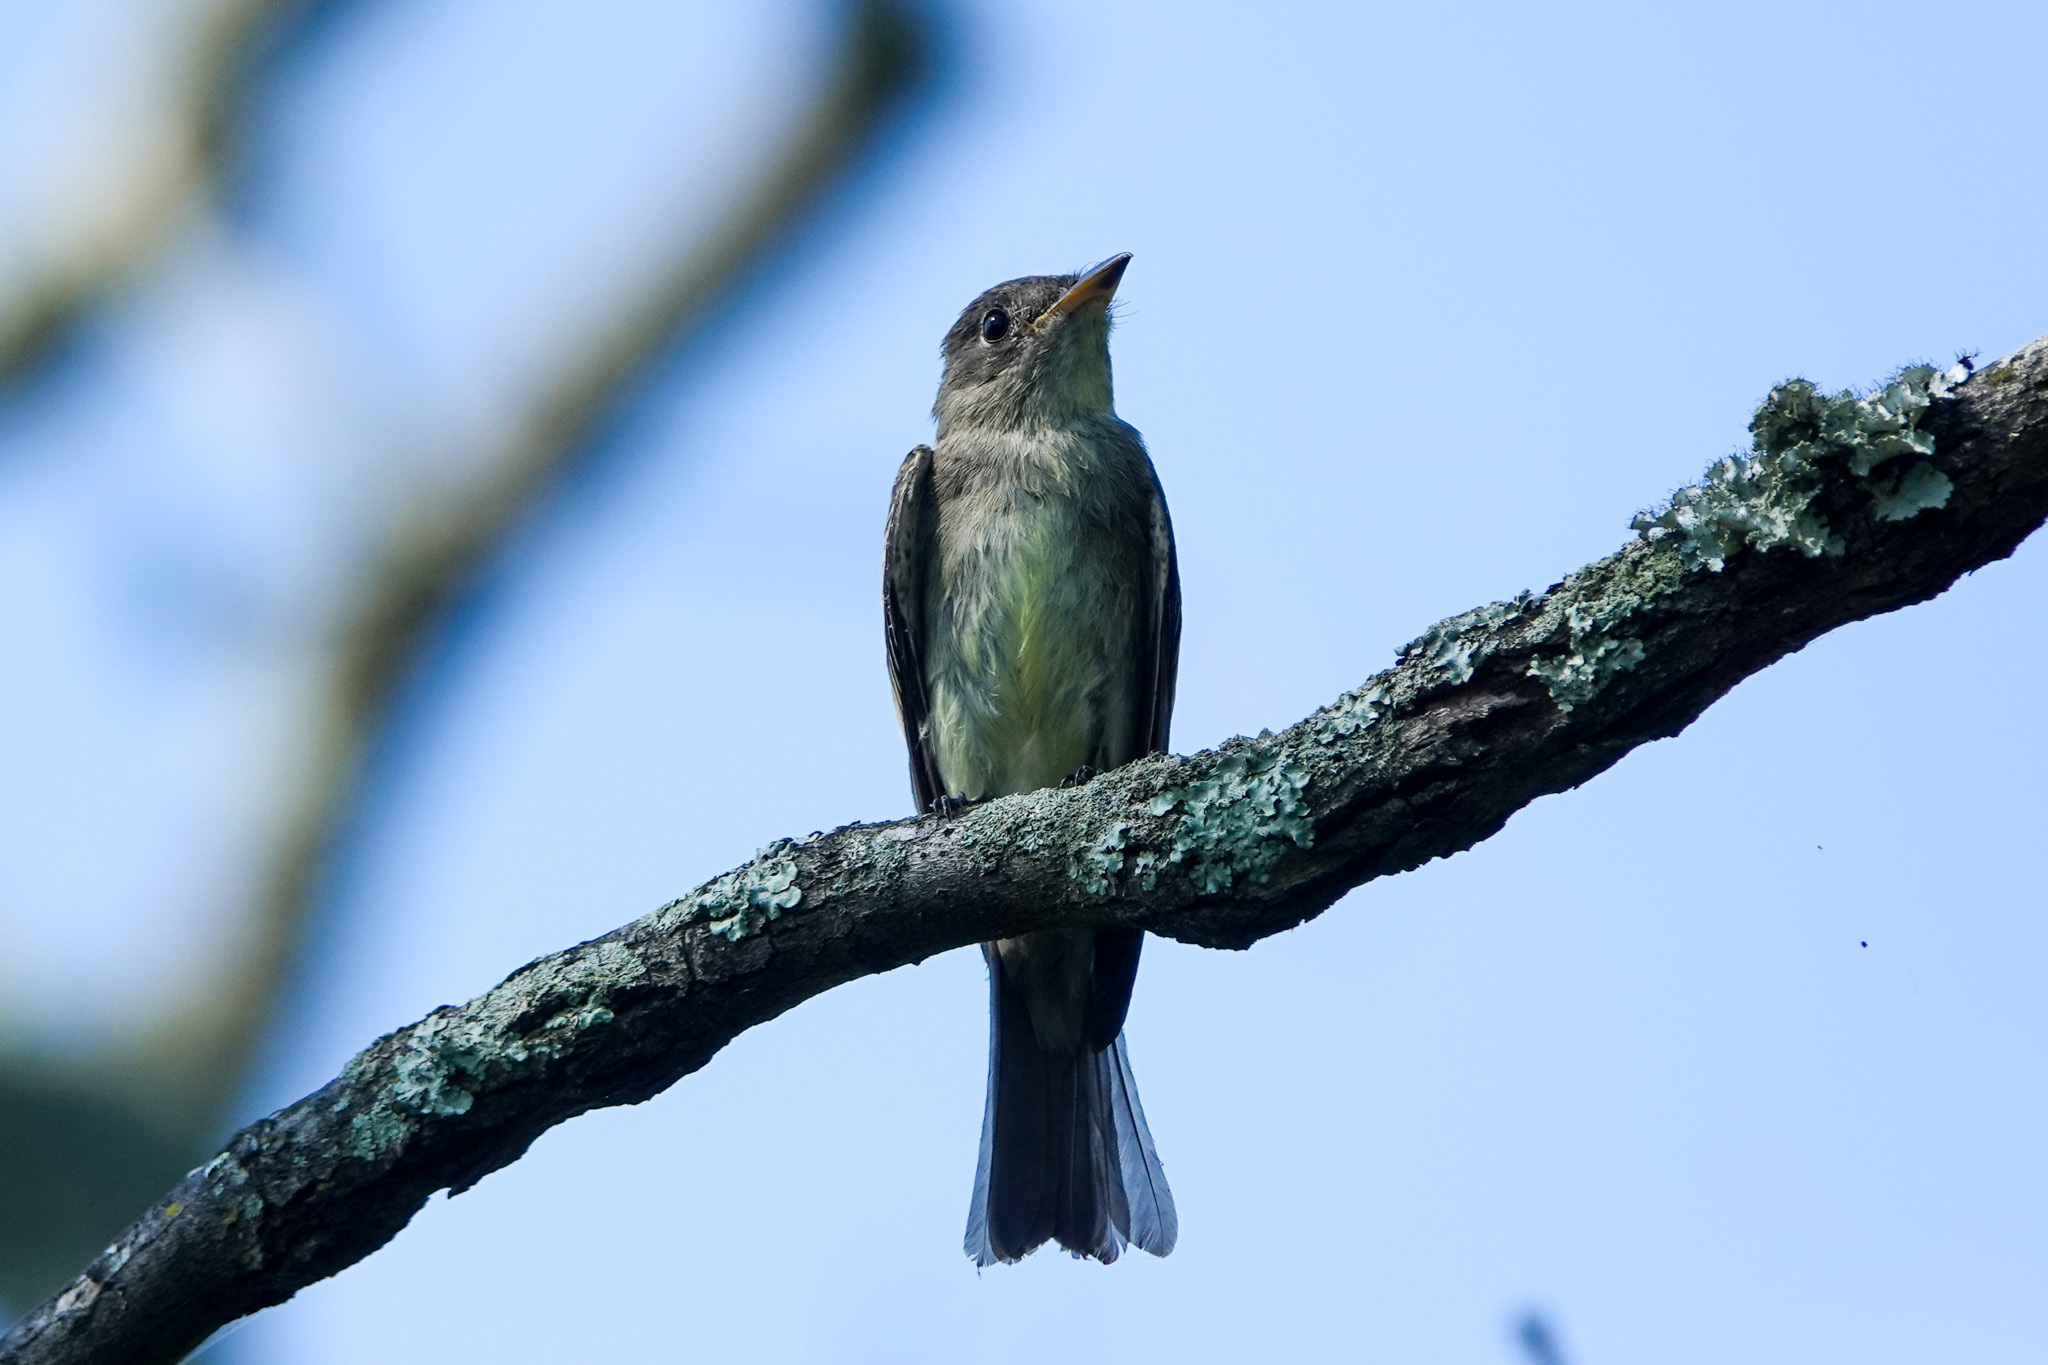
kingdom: Animalia
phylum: Chordata
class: Aves
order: Passeriformes
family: Tyrannidae
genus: Contopus
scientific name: Contopus virens
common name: Eastern wood-pewee
